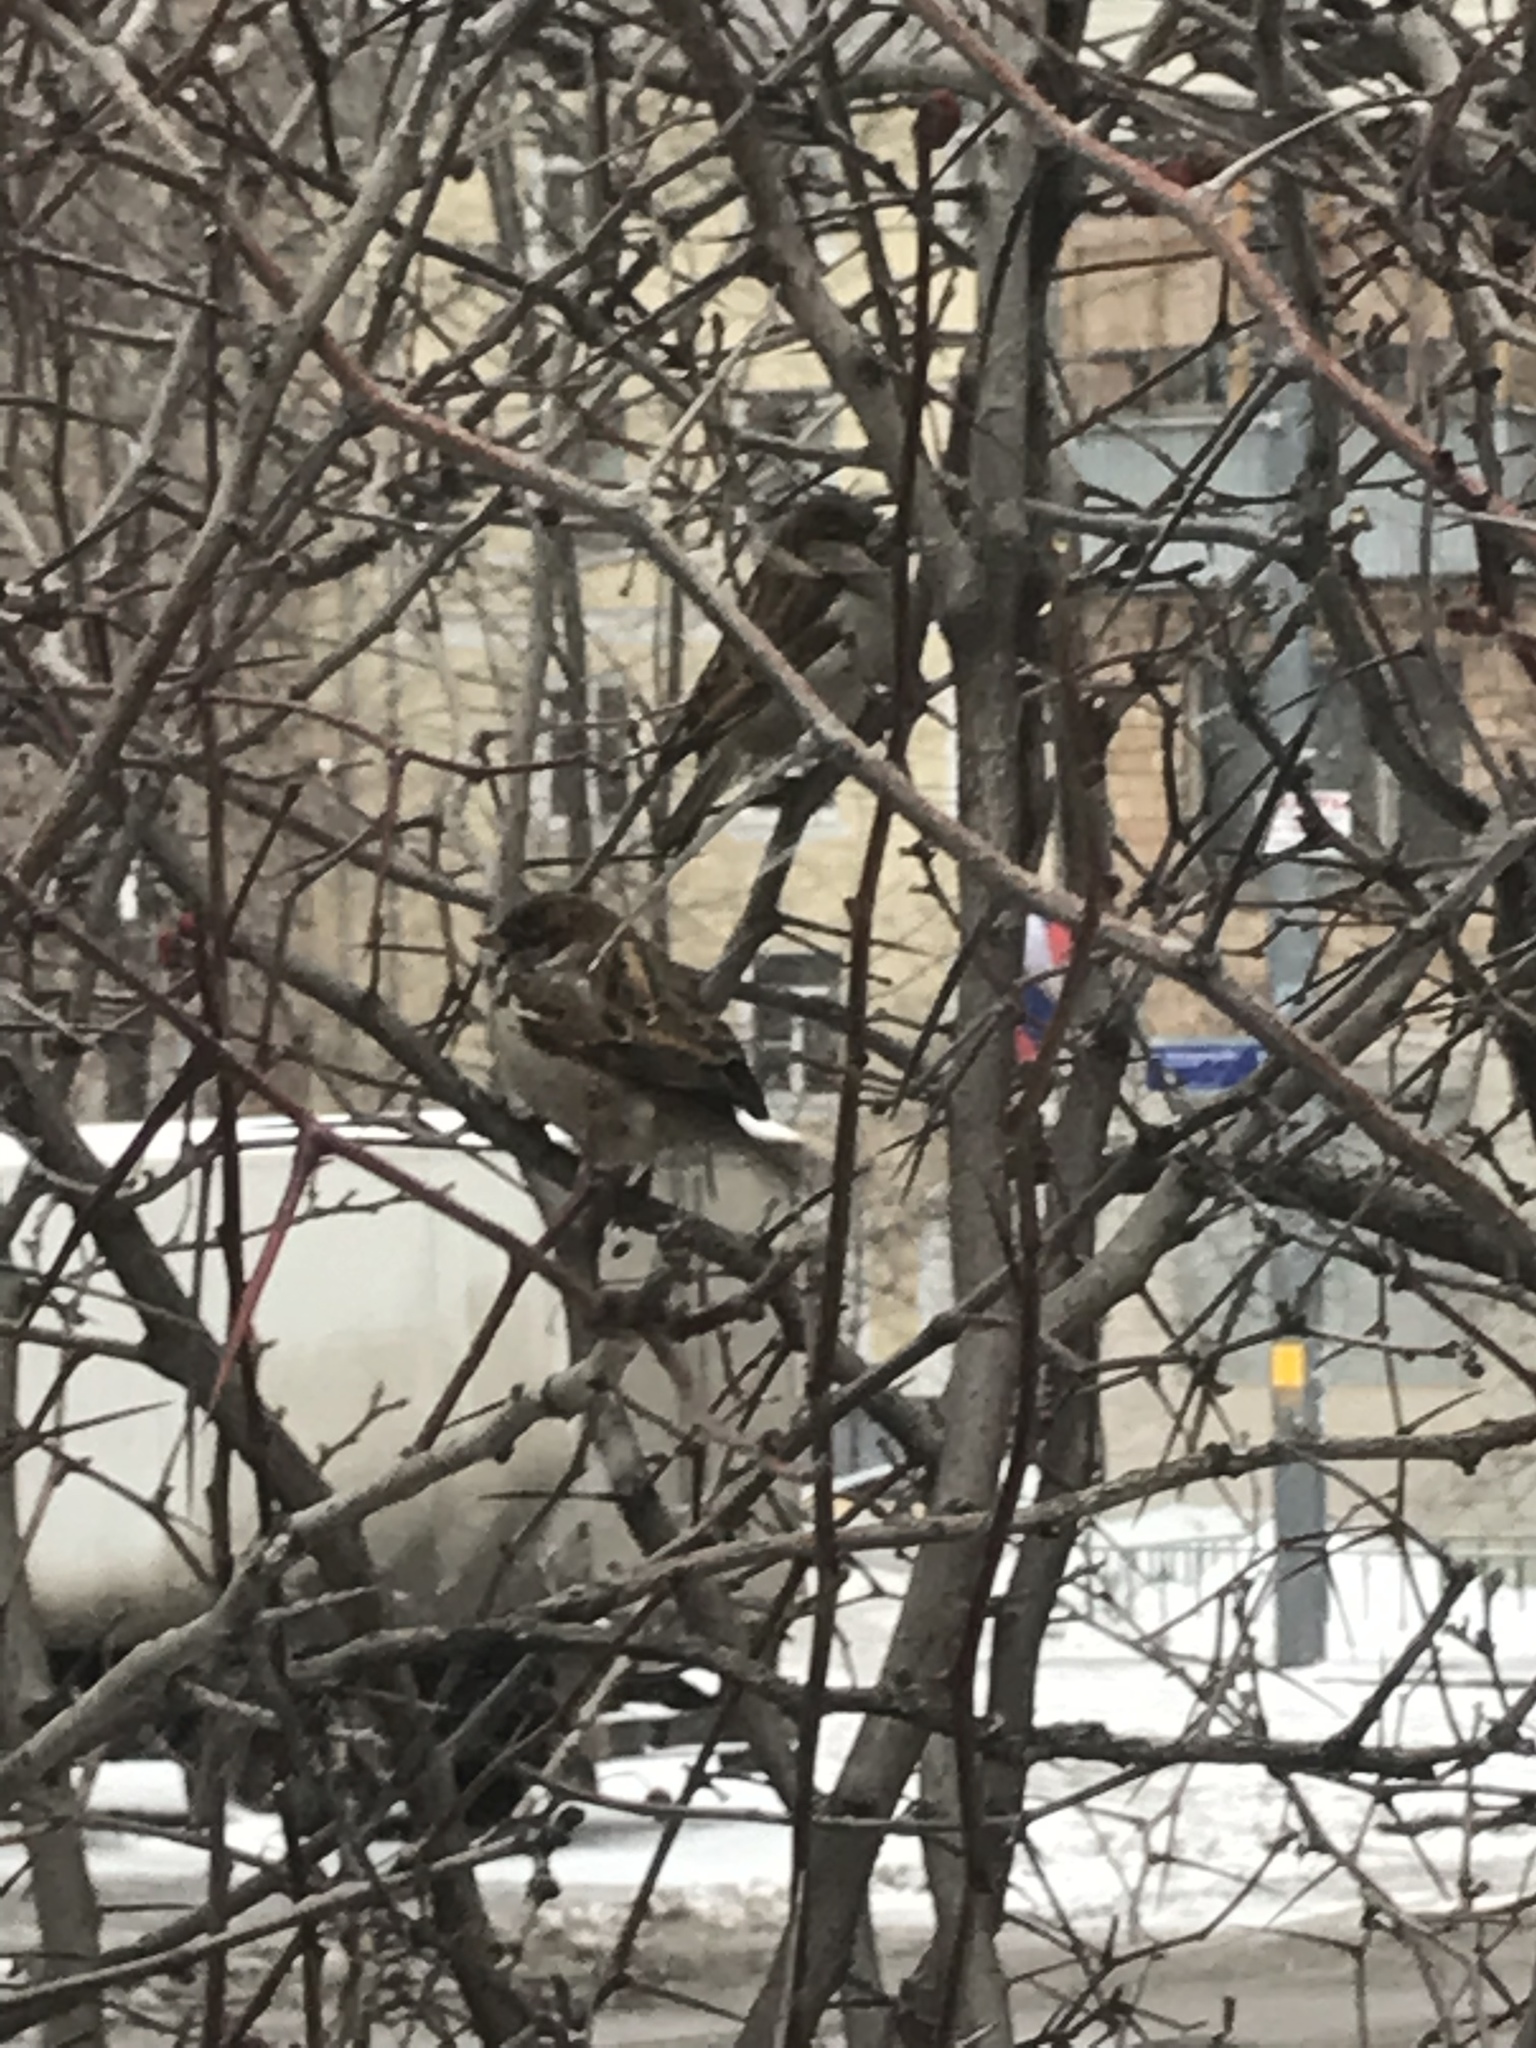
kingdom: Animalia
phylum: Chordata
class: Aves
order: Passeriformes
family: Passeridae
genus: Passer
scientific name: Passer domesticus
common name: House sparrow
